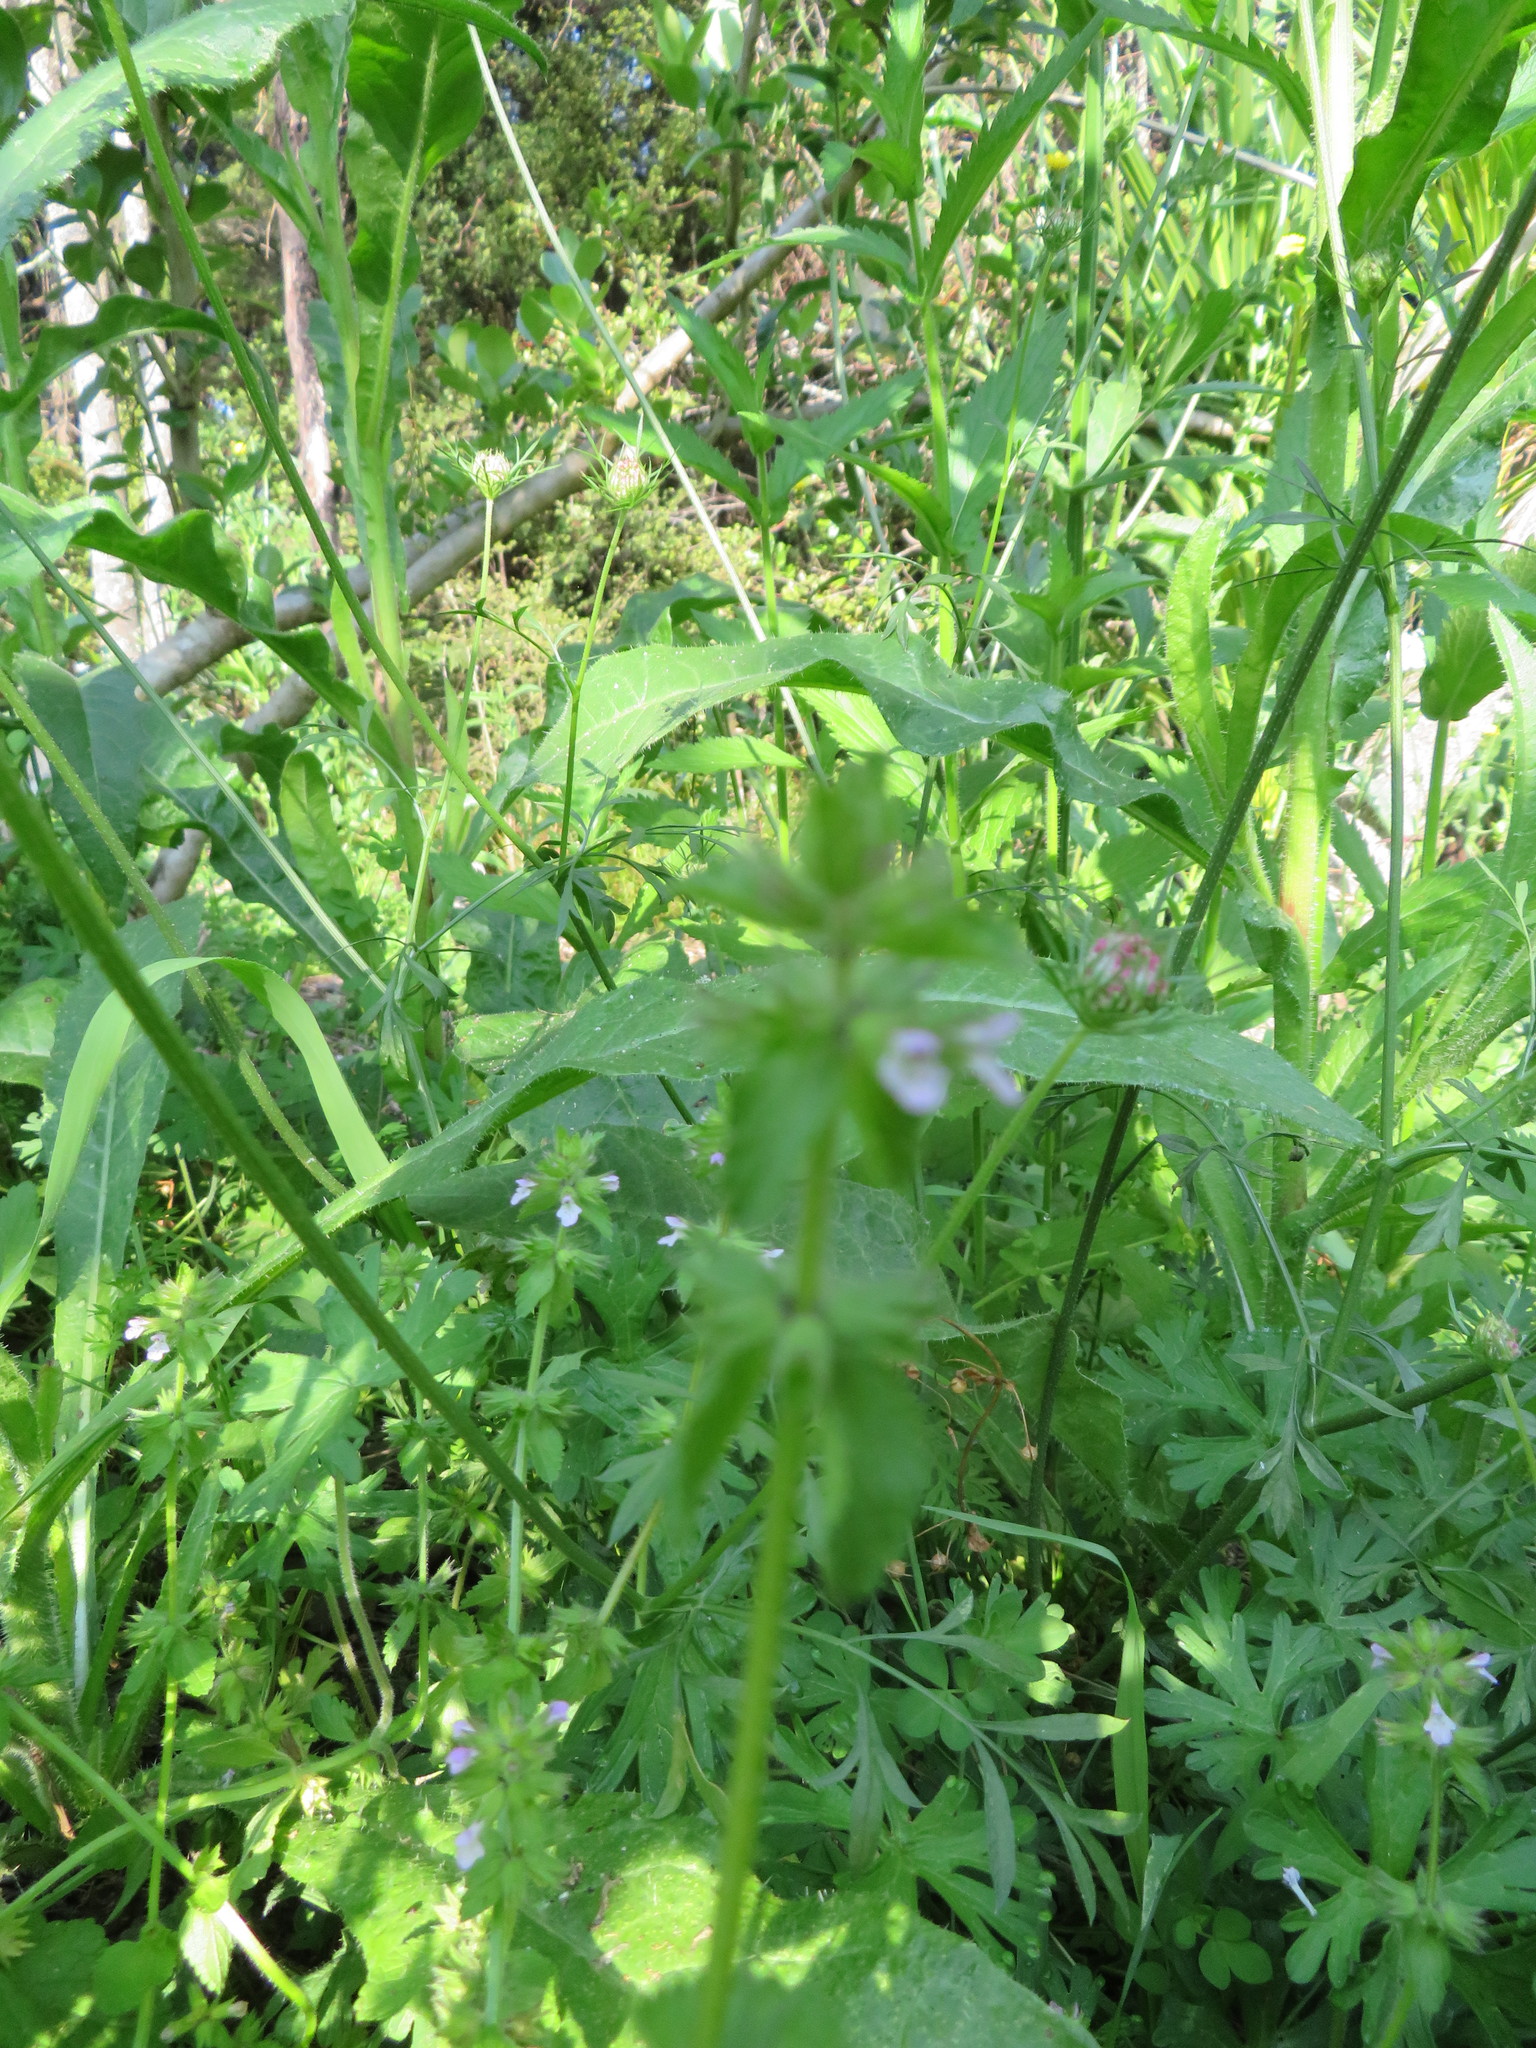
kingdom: Plantae
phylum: Tracheophyta
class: Magnoliopsida
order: Lamiales
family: Lamiaceae
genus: Stachys
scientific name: Stachys arvensis
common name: Field woundwort
